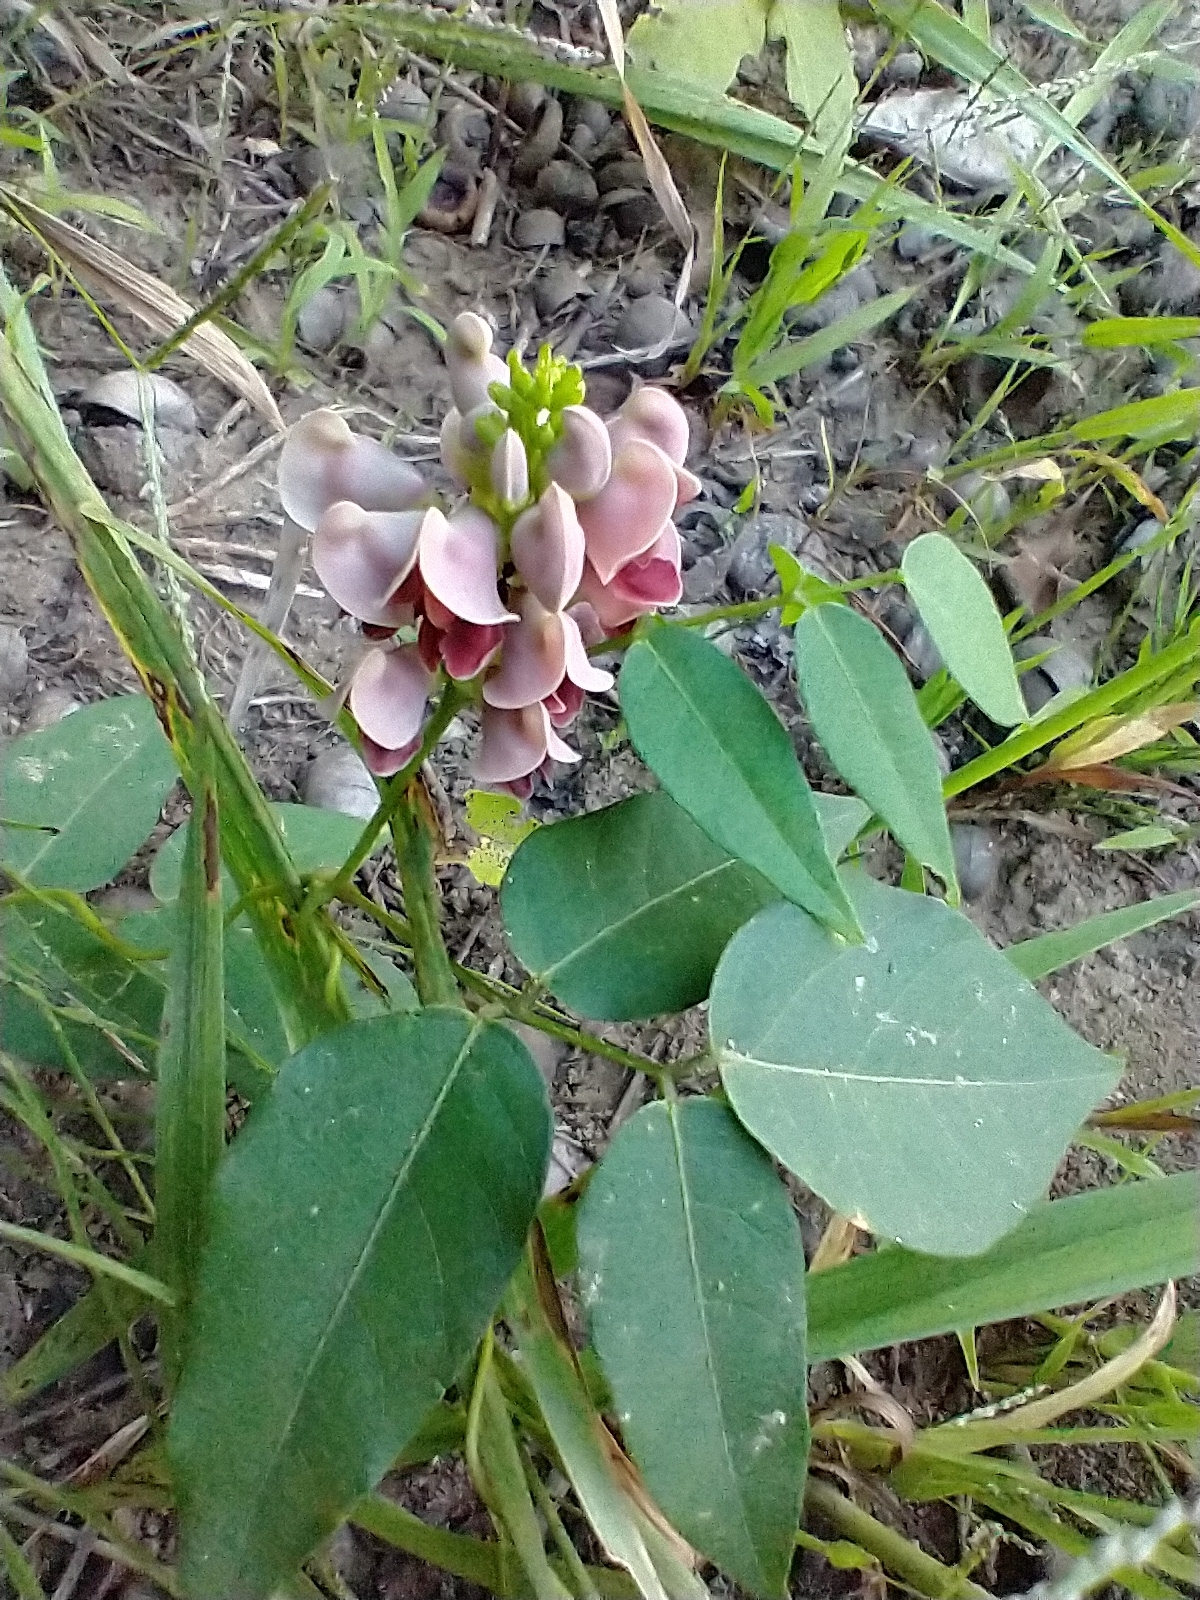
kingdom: Plantae
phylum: Tracheophyta
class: Magnoliopsida
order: Fabales
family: Fabaceae
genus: Apios
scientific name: Apios americana
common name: American potato-bean
